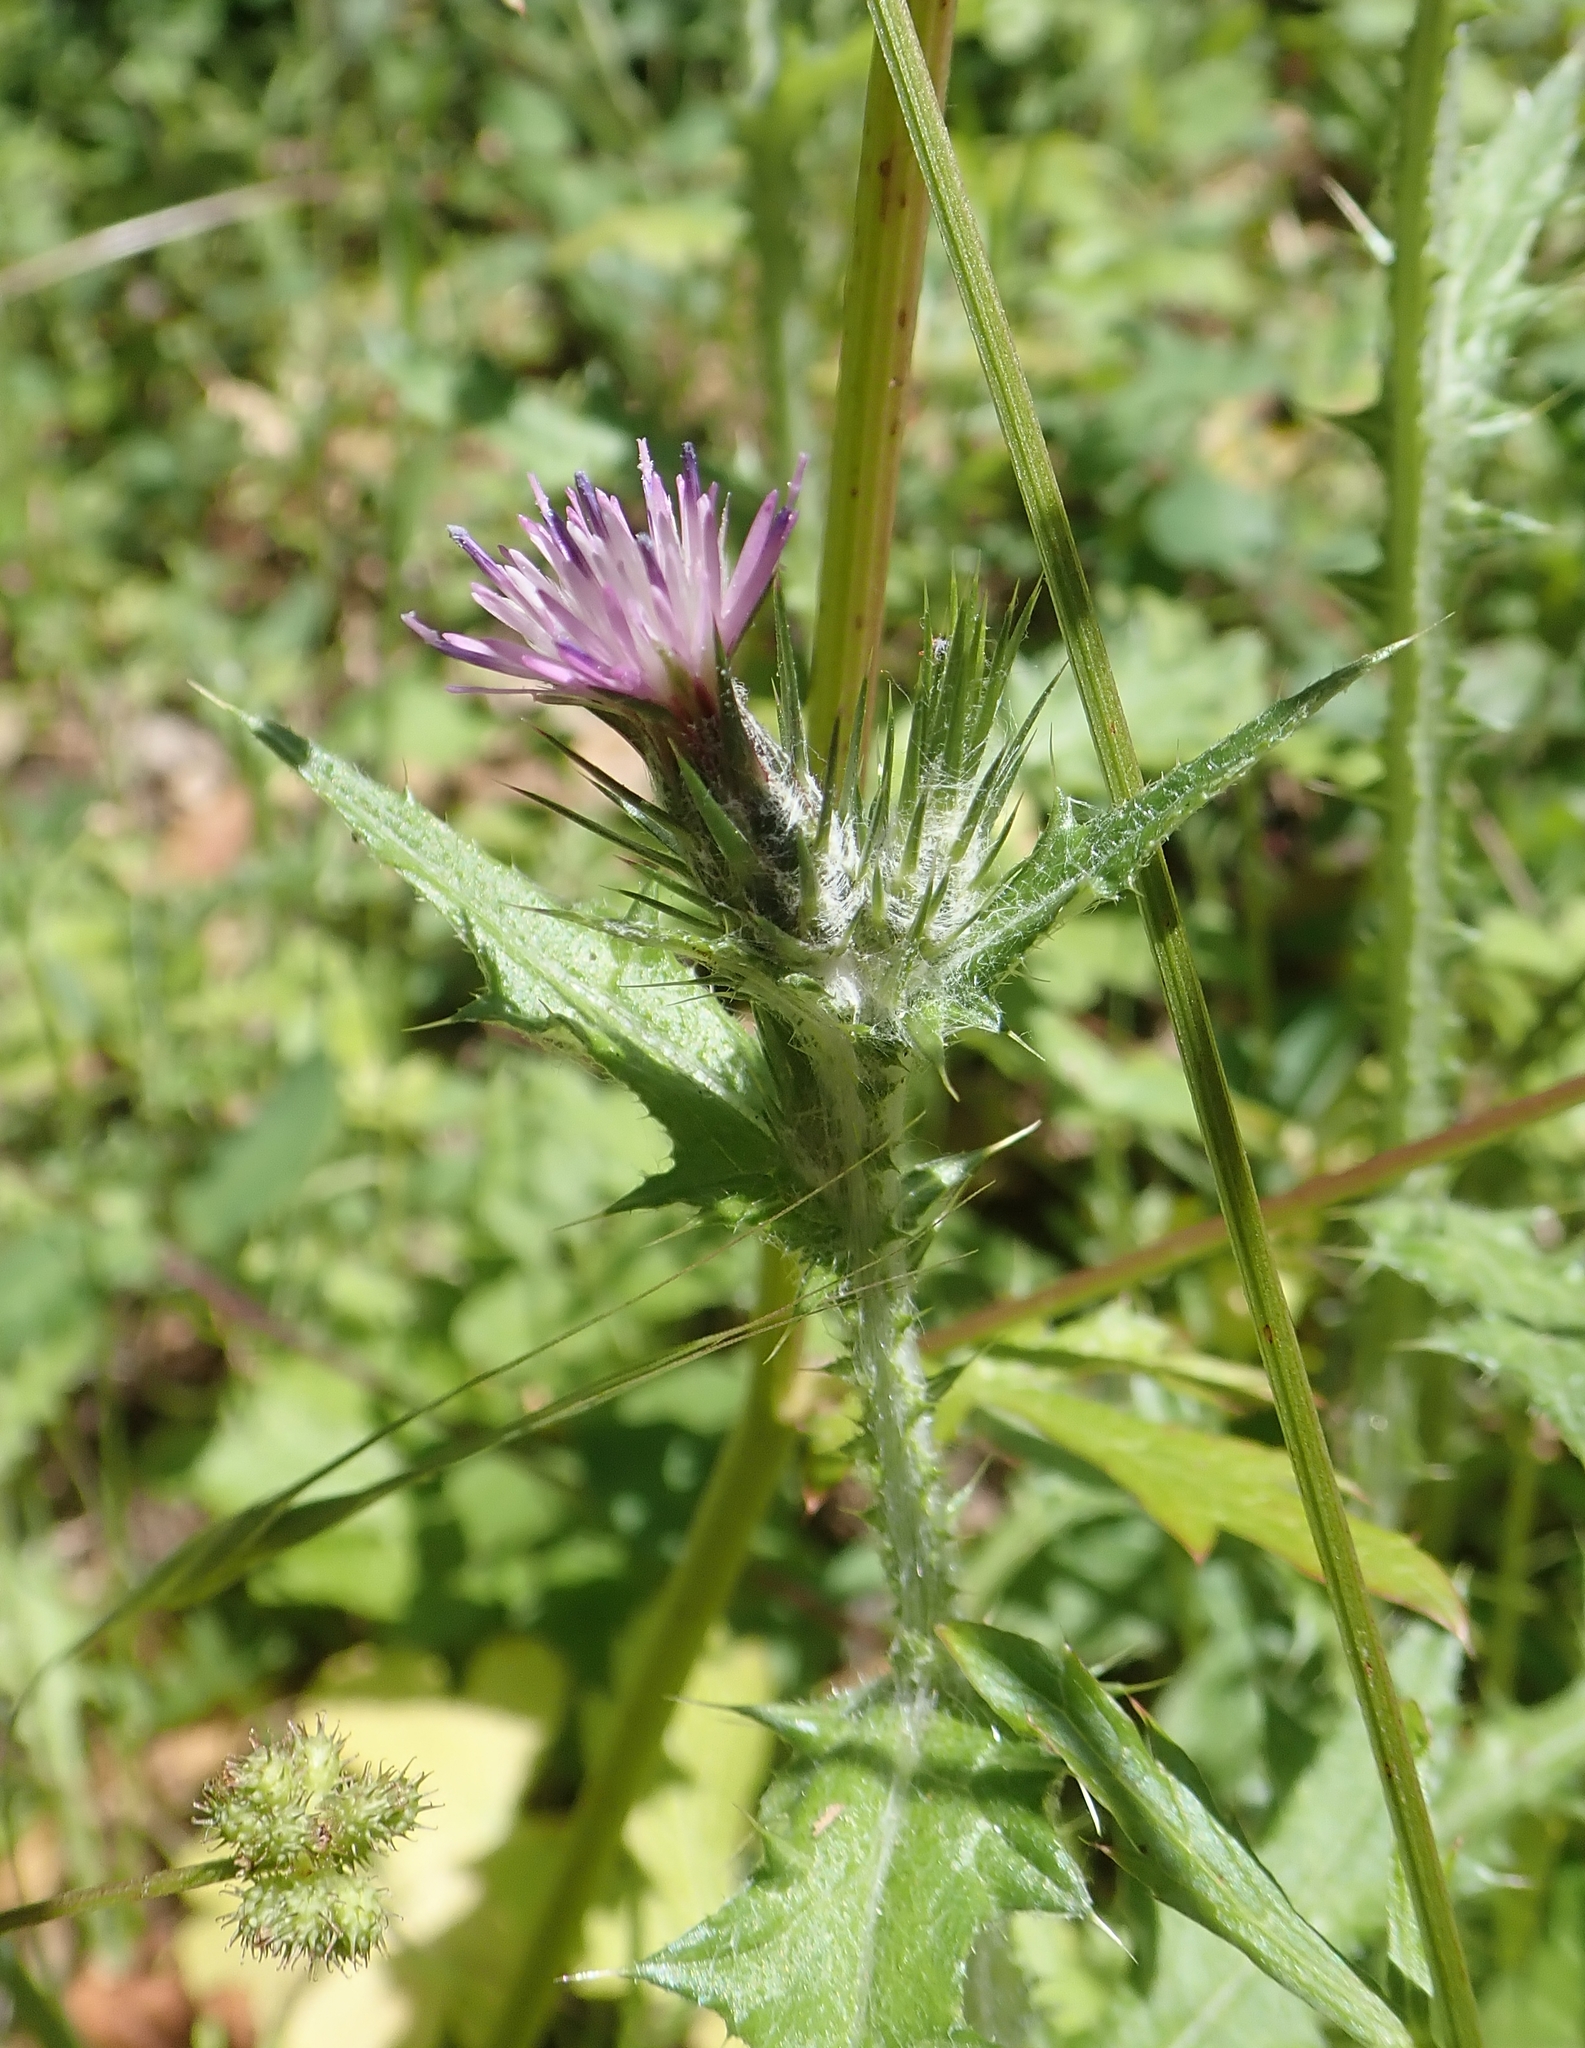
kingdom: Plantae
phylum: Tracheophyta
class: Magnoliopsida
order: Asterales
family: Asteraceae
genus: Carduus
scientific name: Carduus pycnocephalus
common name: Plymouth thistle
